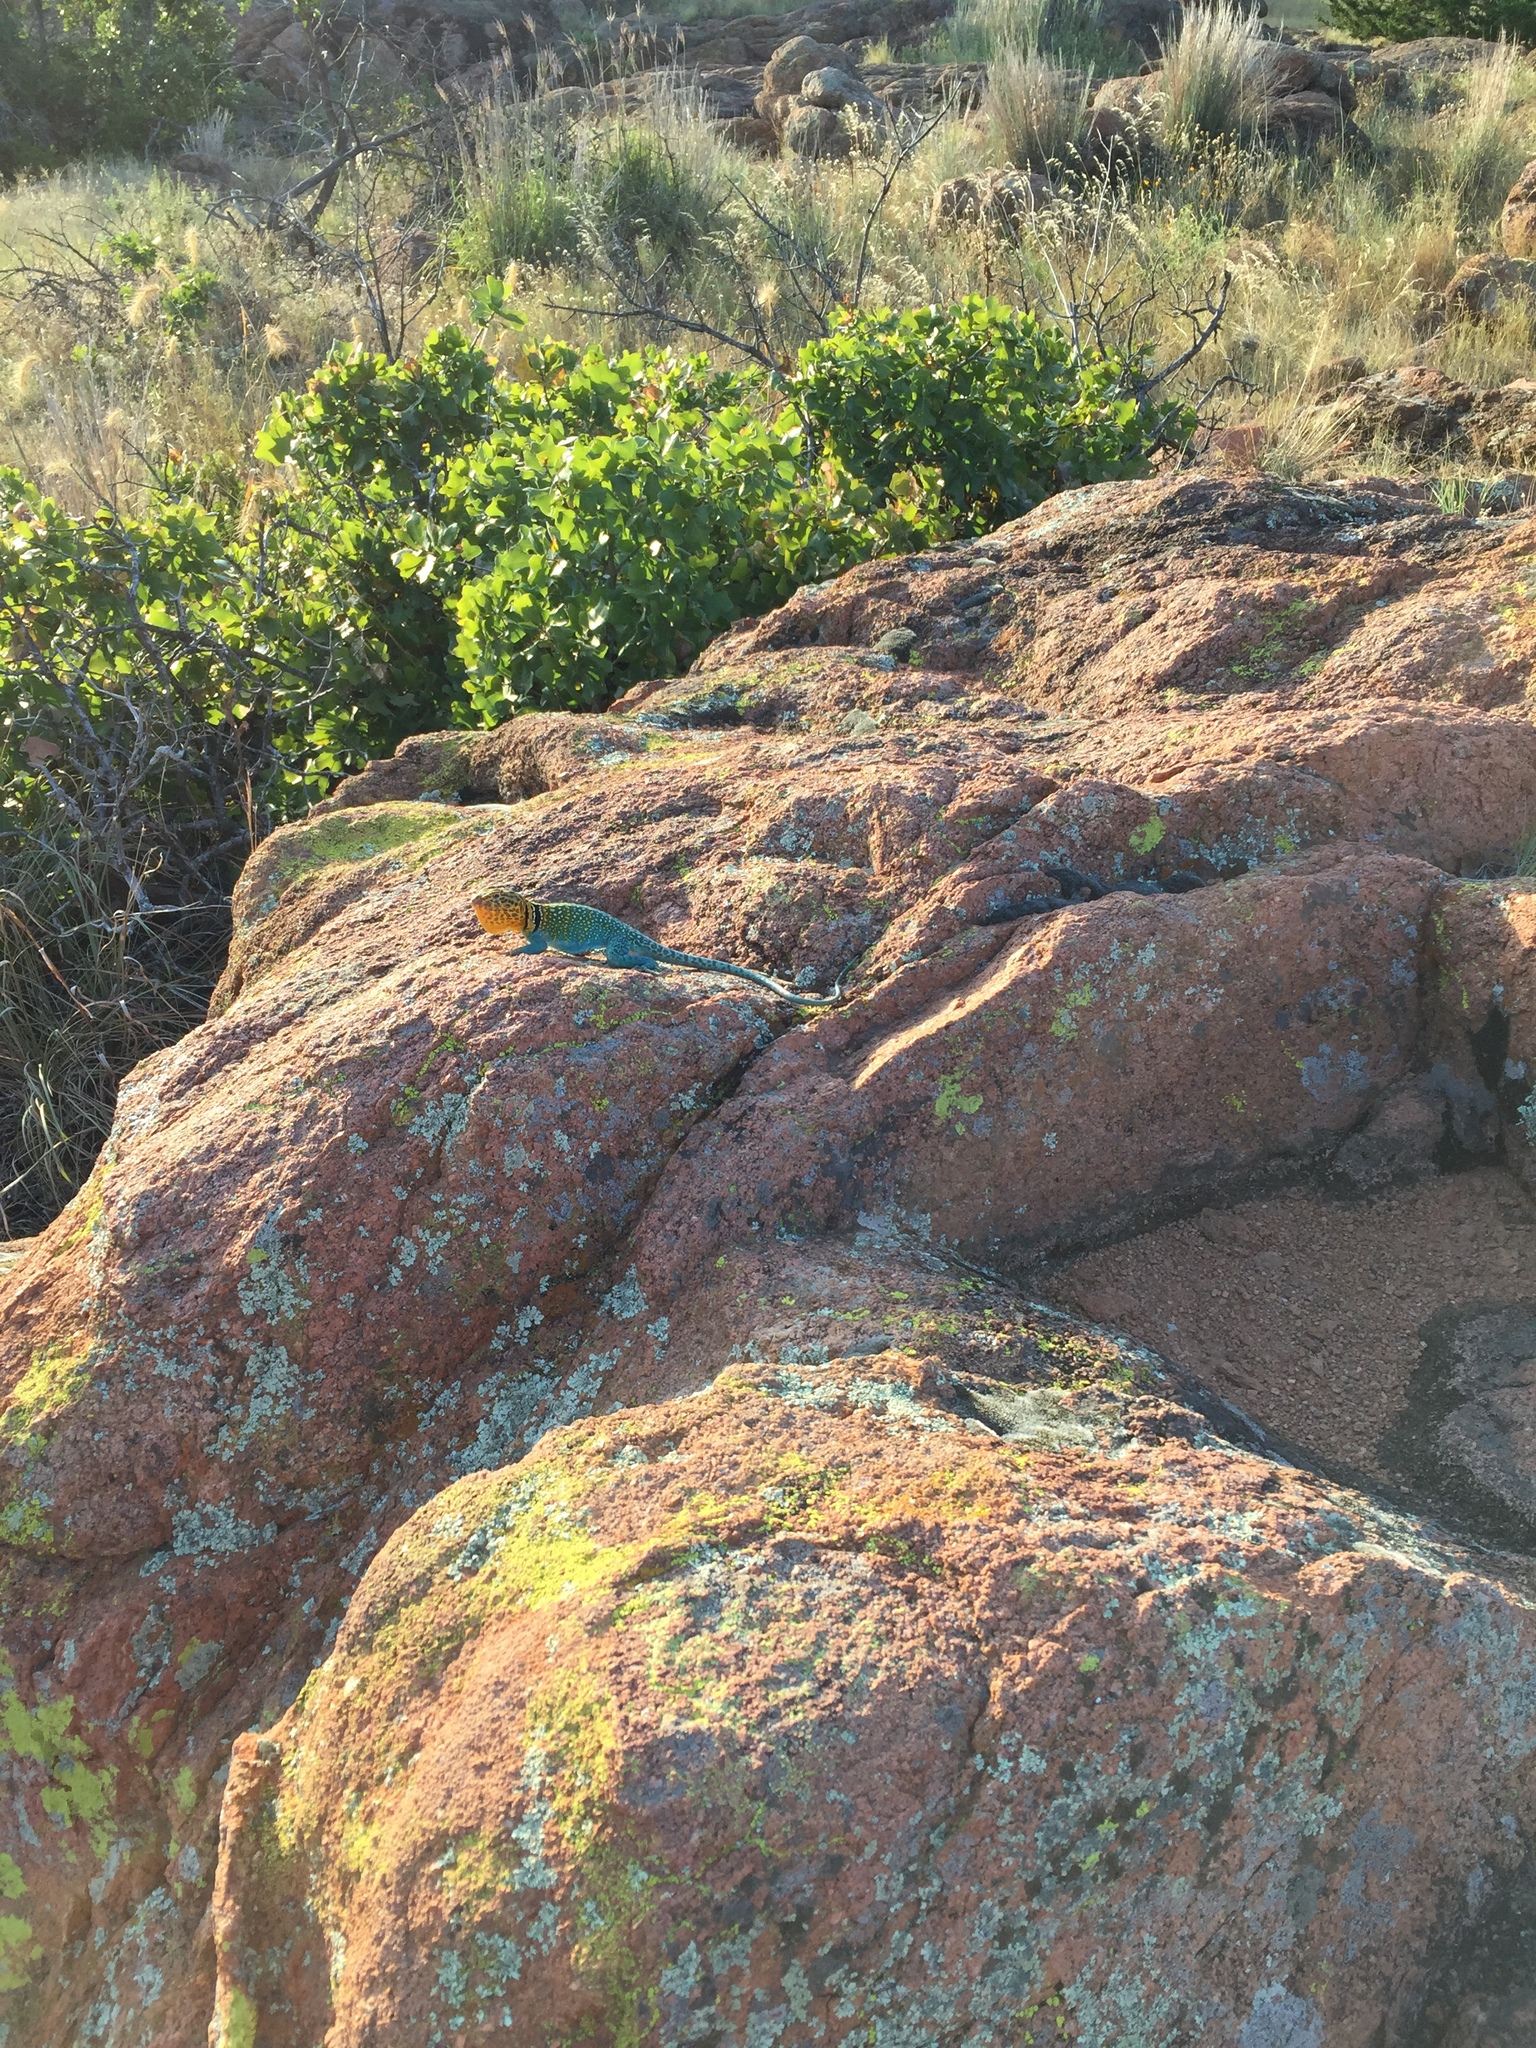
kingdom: Animalia
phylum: Chordata
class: Squamata
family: Crotaphytidae
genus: Crotaphytus
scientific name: Crotaphytus collaris
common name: Collared lizard
